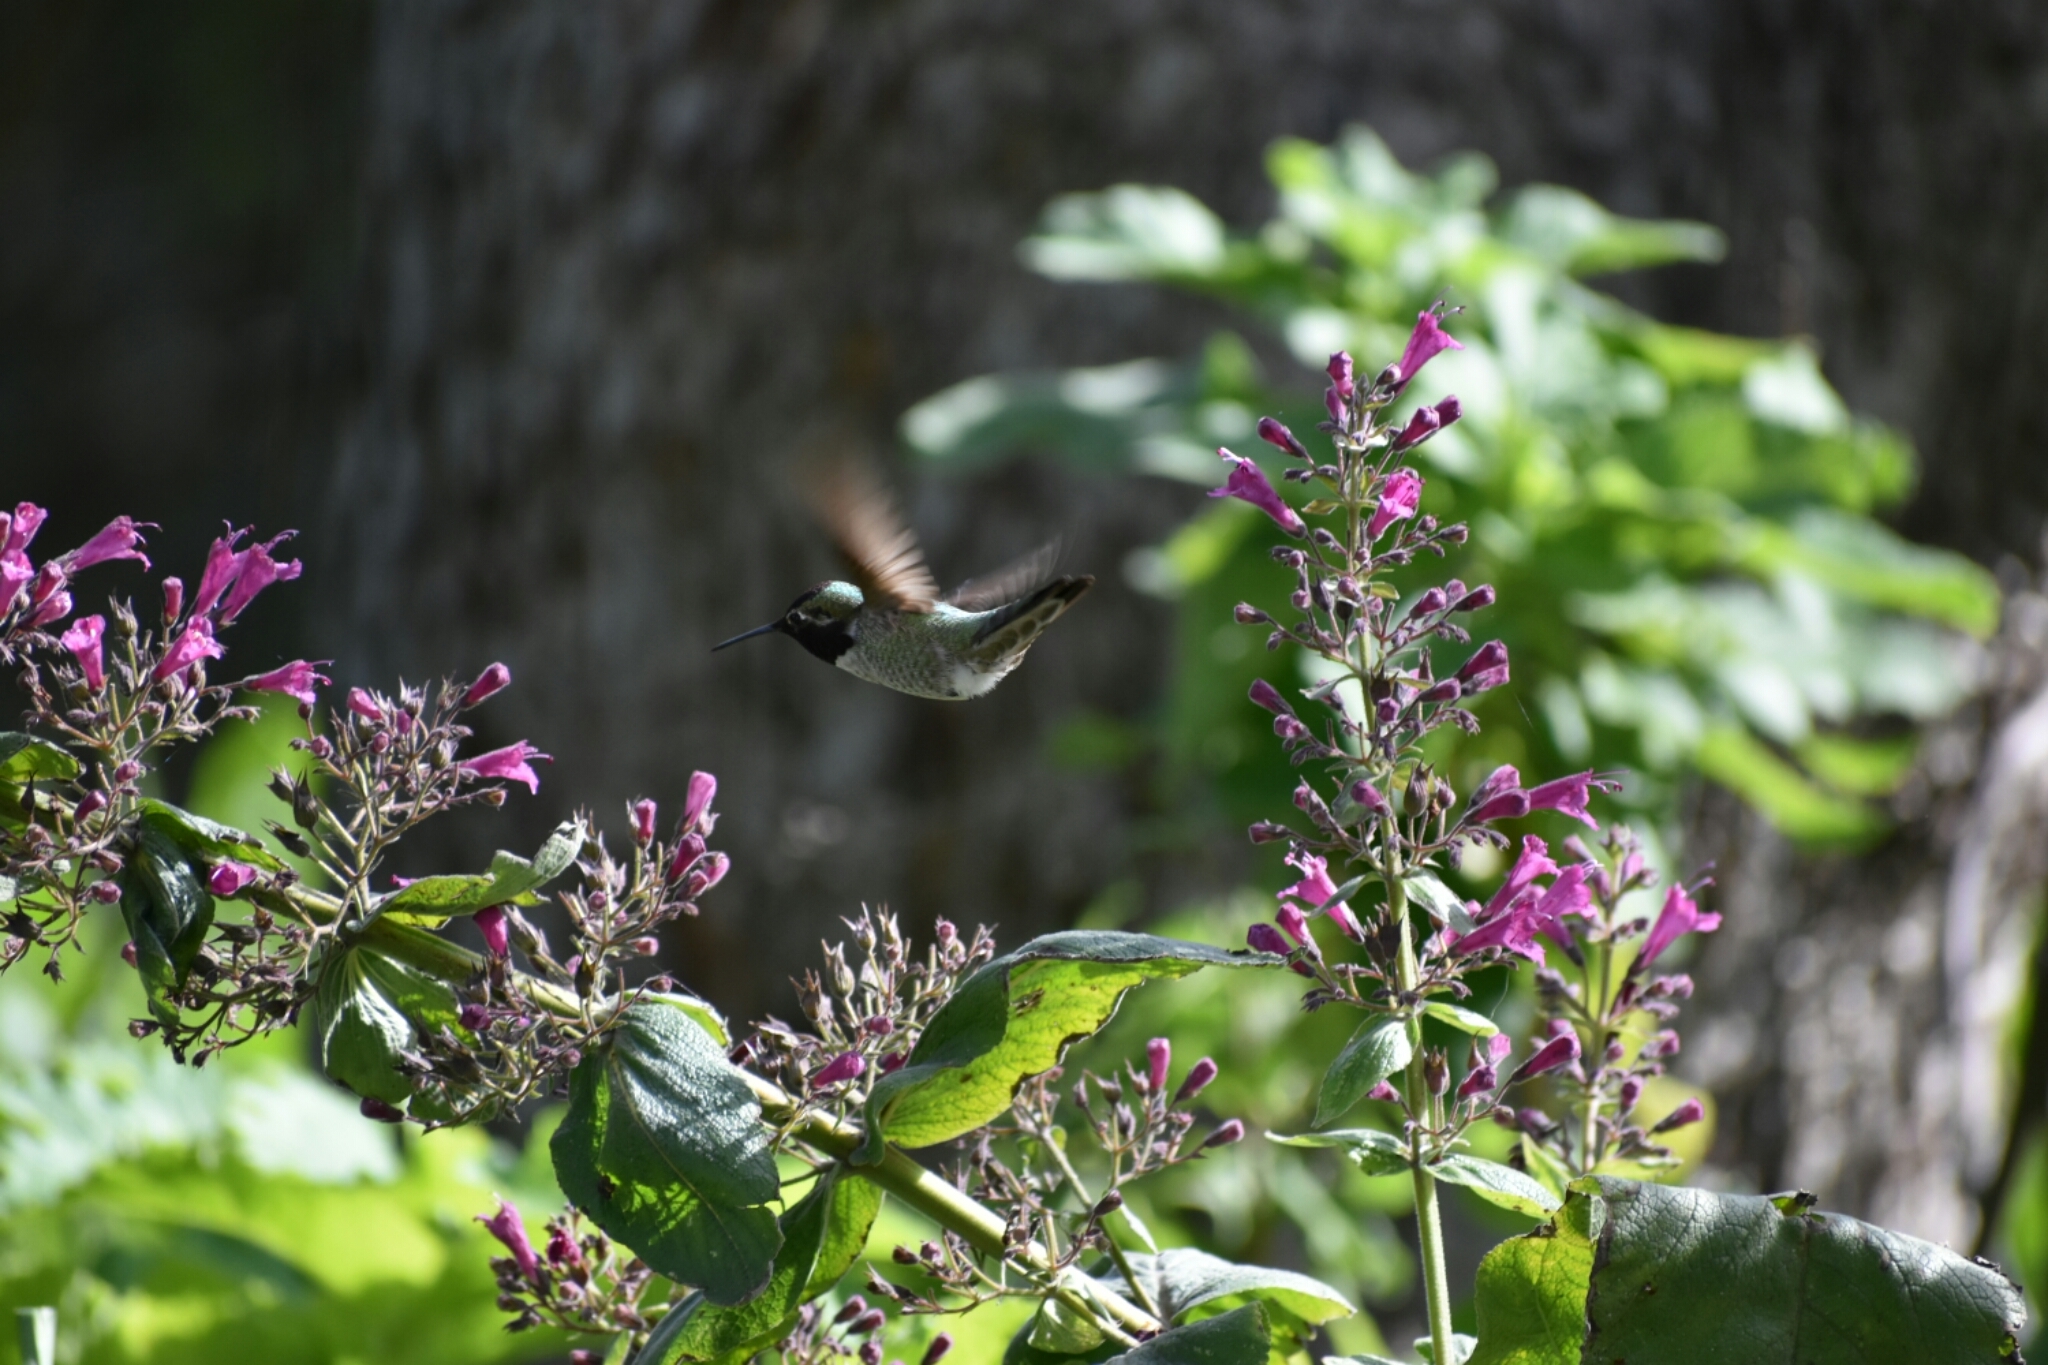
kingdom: Animalia
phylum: Chordata
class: Aves
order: Apodiformes
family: Trochilidae
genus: Calypte
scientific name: Calypte anna
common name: Anna's hummingbird
